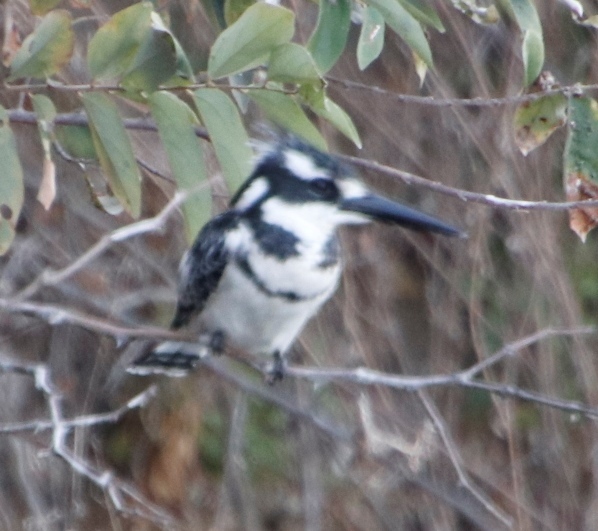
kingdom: Animalia
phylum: Chordata
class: Aves
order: Coraciiformes
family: Alcedinidae
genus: Ceryle
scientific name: Ceryle rudis
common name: Pied kingfisher
